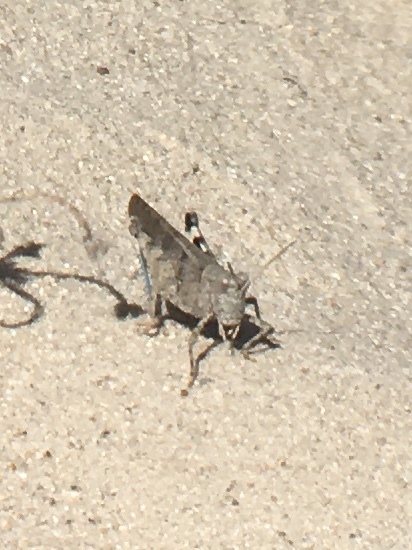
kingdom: Animalia
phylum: Arthropoda
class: Insecta
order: Orthoptera
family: Acrididae
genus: Trimerotropis
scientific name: Trimerotropis thalassica
